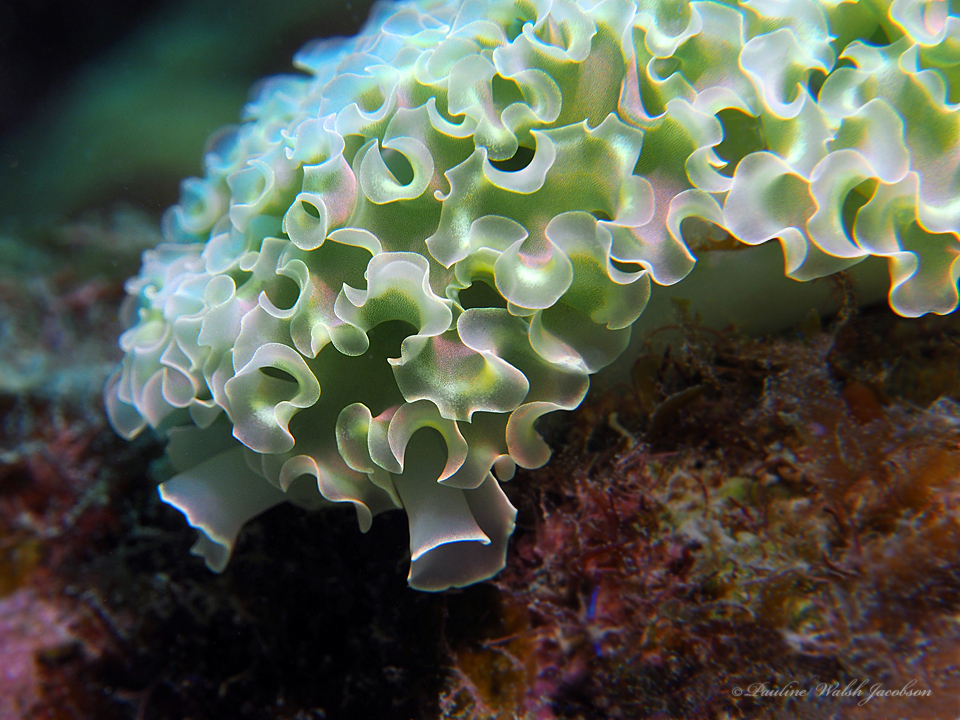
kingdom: Animalia
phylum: Mollusca
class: Gastropoda
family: Plakobranchidae
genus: Elysia
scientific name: Elysia crispata
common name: Lettuce slug
